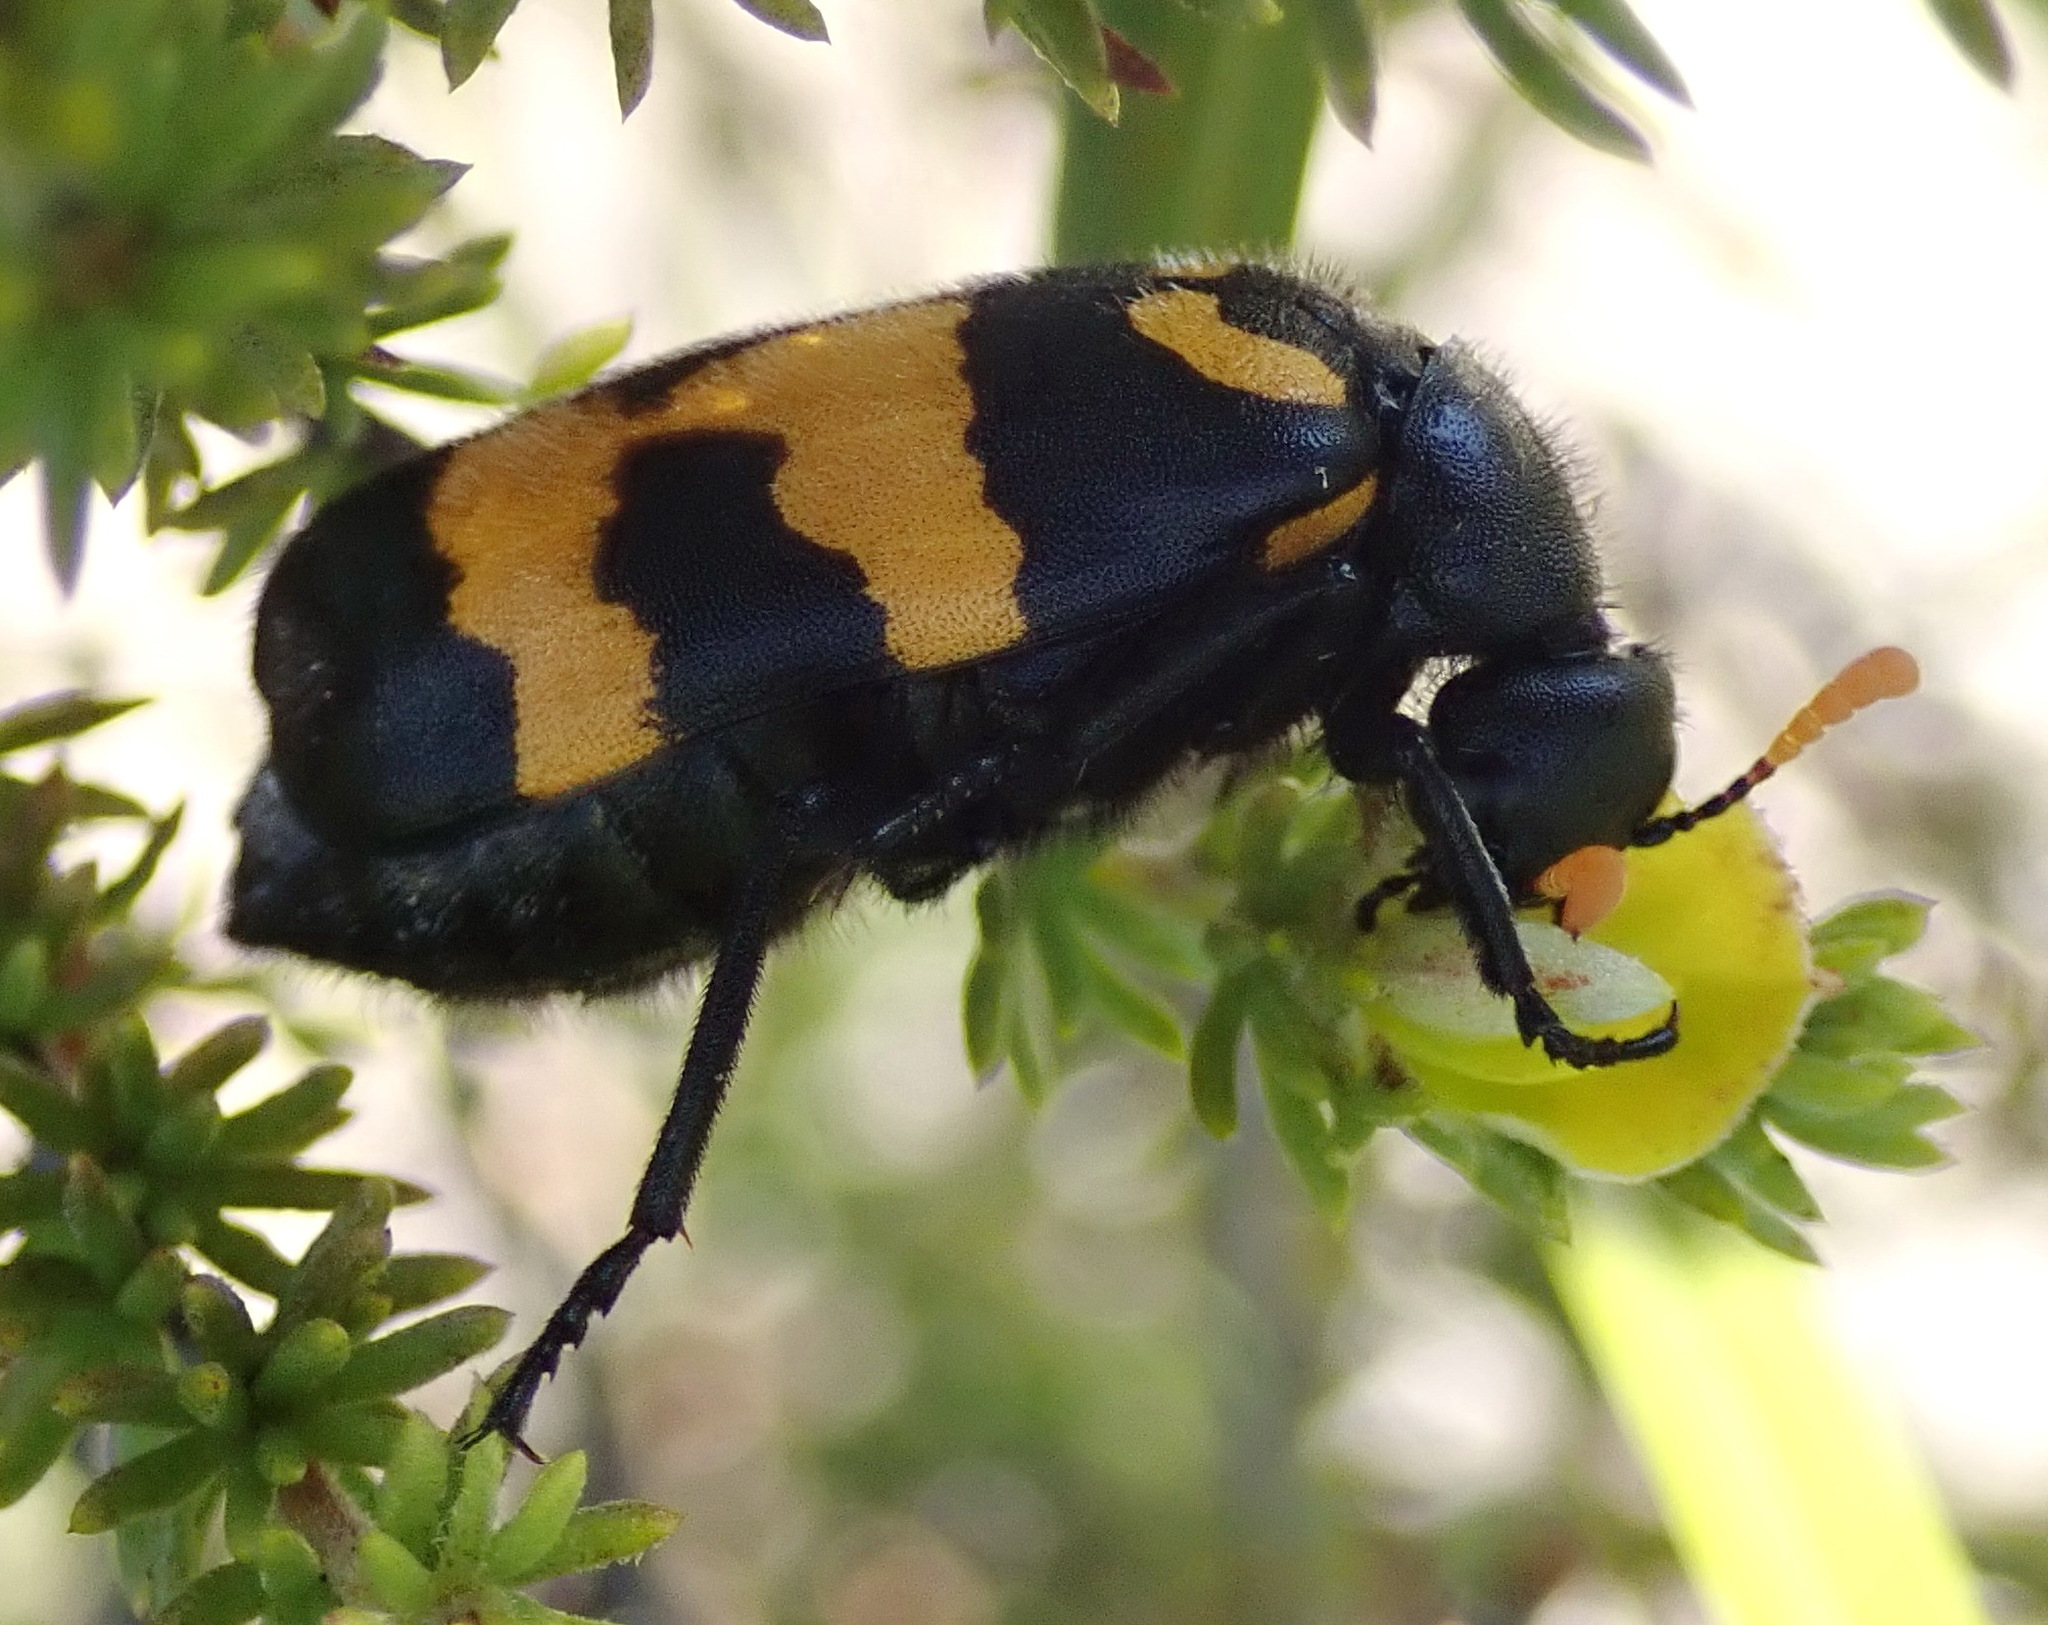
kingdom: Animalia
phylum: Arthropoda
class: Insecta
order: Coleoptera
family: Meloidae
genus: Meloe
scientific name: Meloe lunata
